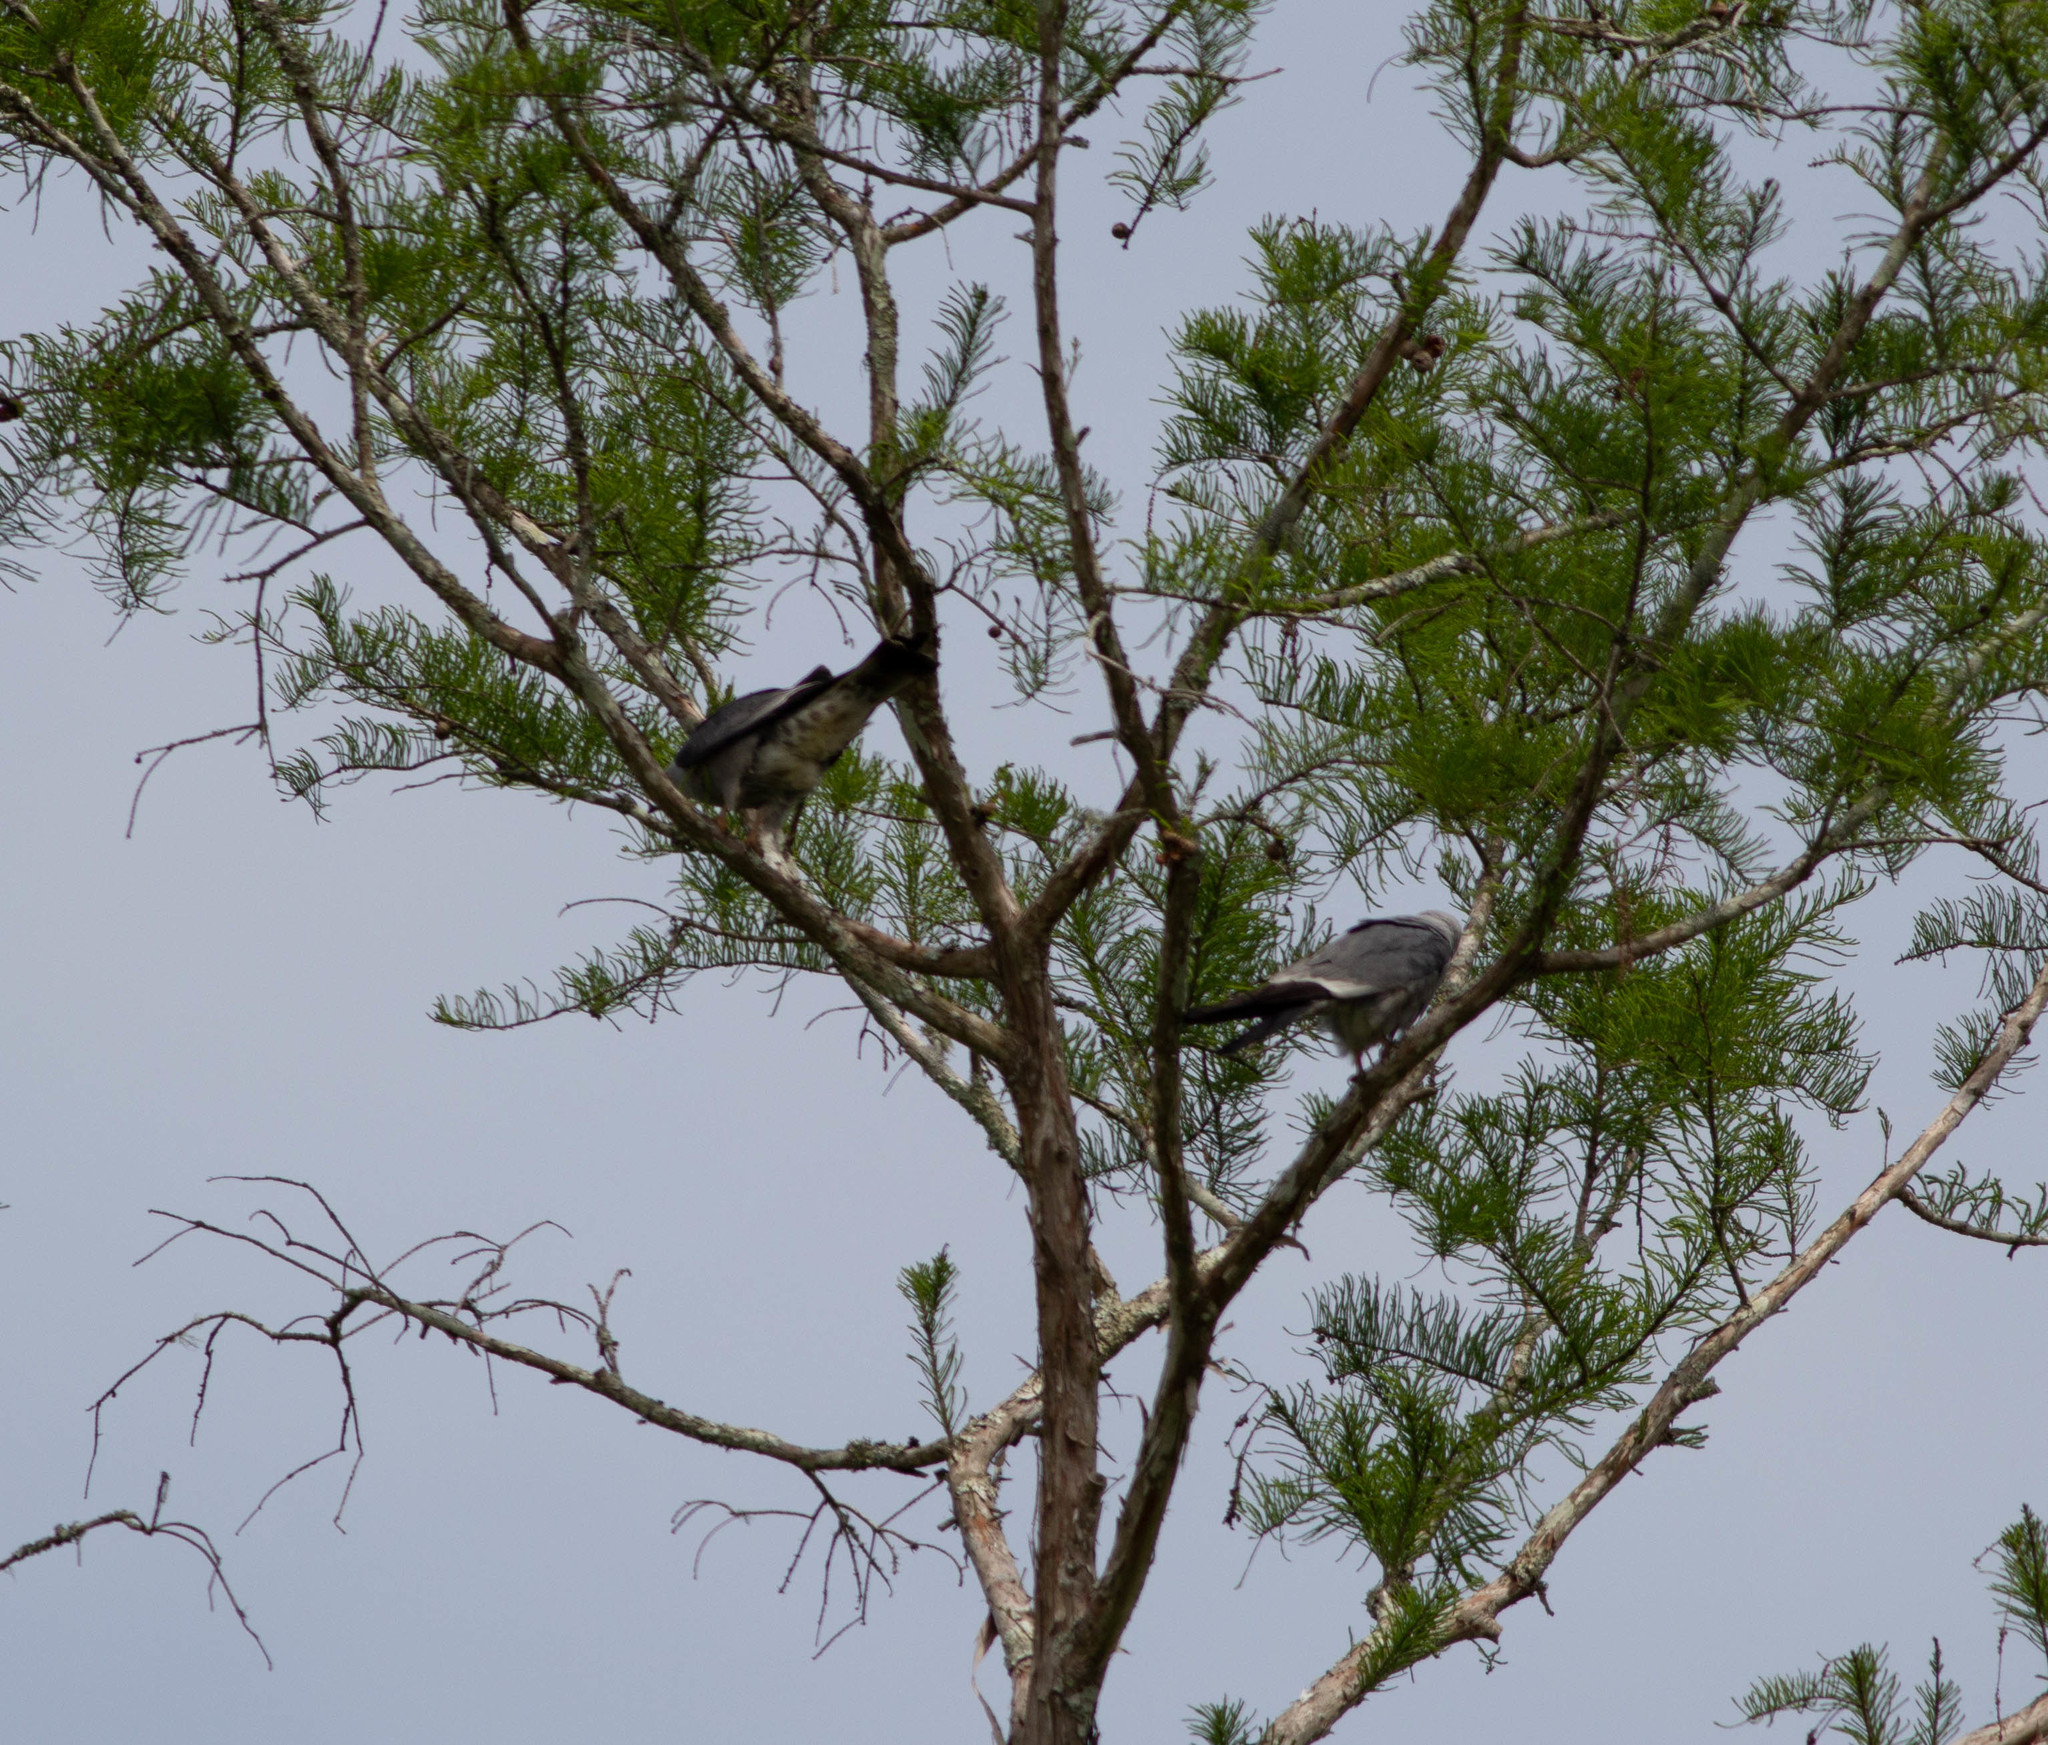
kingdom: Animalia
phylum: Chordata
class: Aves
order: Accipitriformes
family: Accipitridae
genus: Ictinia
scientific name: Ictinia mississippiensis
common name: Mississippi kite
